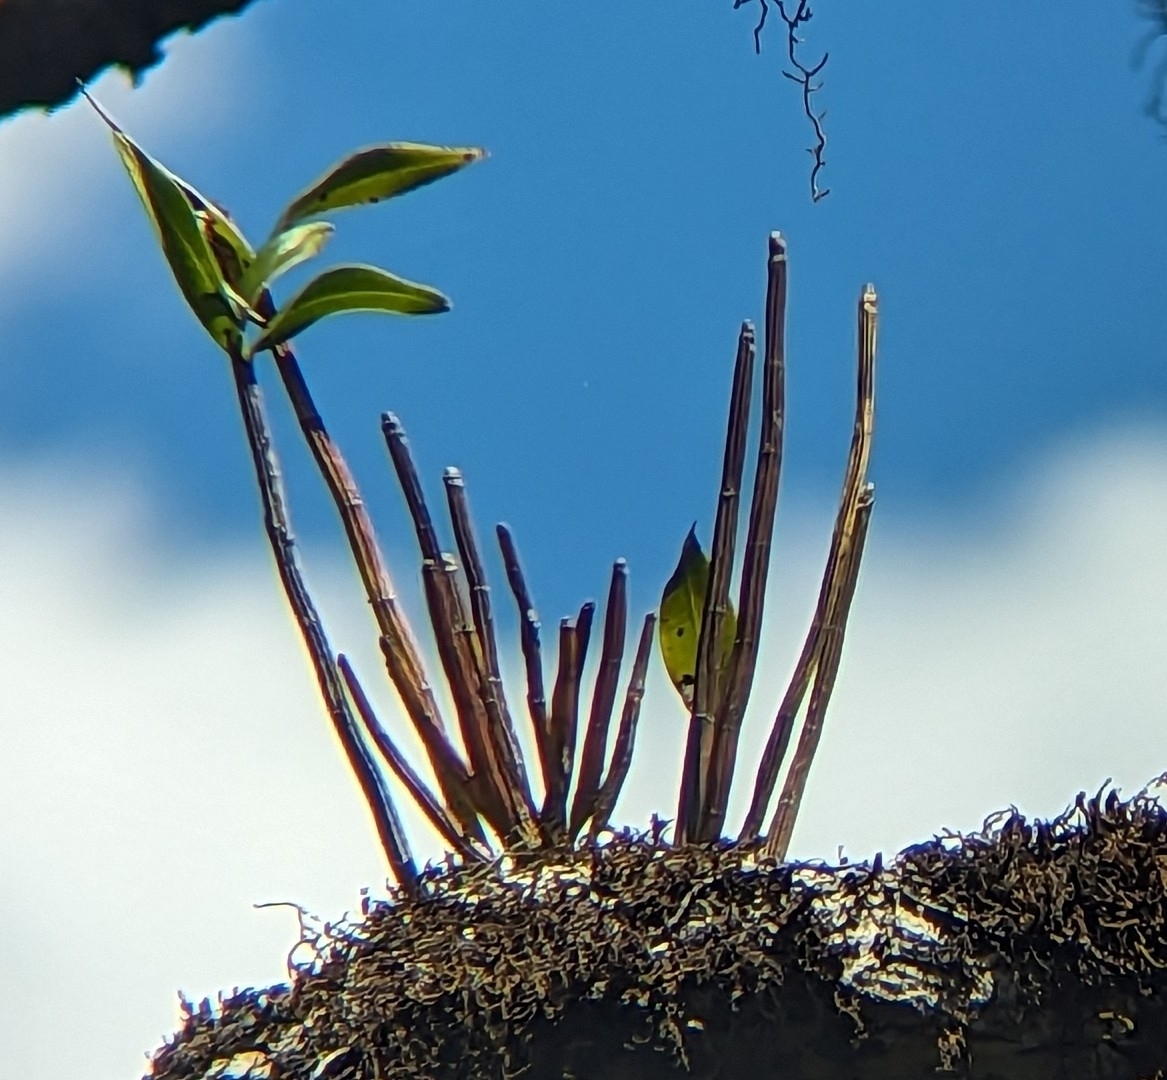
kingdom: Plantae
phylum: Tracheophyta
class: Liliopsida
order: Asparagales
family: Orchidaceae
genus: Dendrobium
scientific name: Dendrobium gracilicaule
